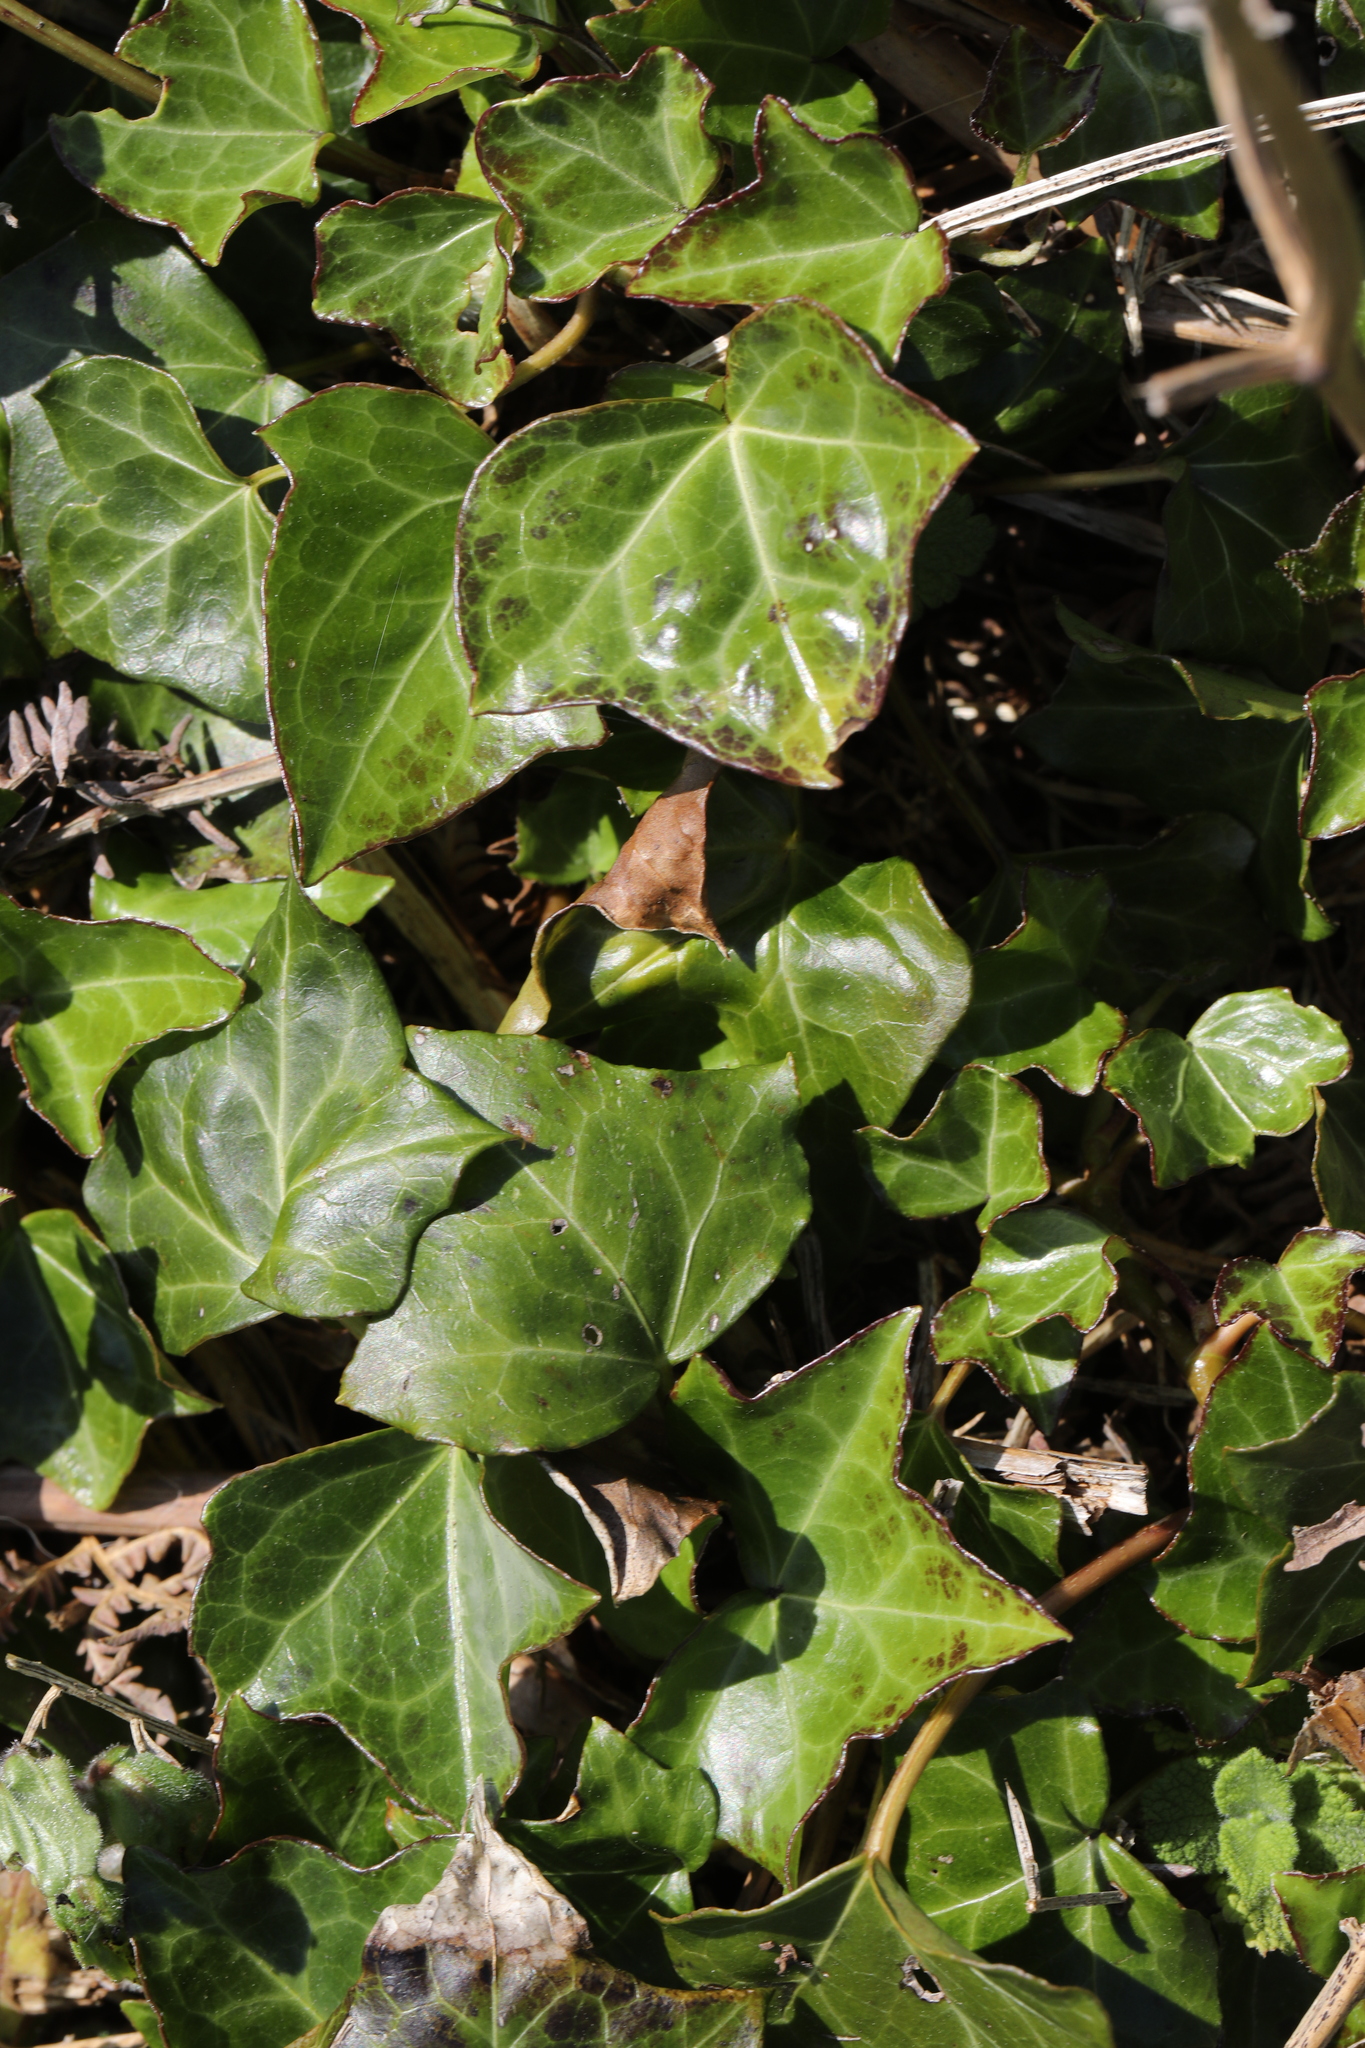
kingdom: Plantae
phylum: Tracheophyta
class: Magnoliopsida
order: Apiales
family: Araliaceae
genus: Hedera
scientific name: Hedera helix
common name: Ivy
